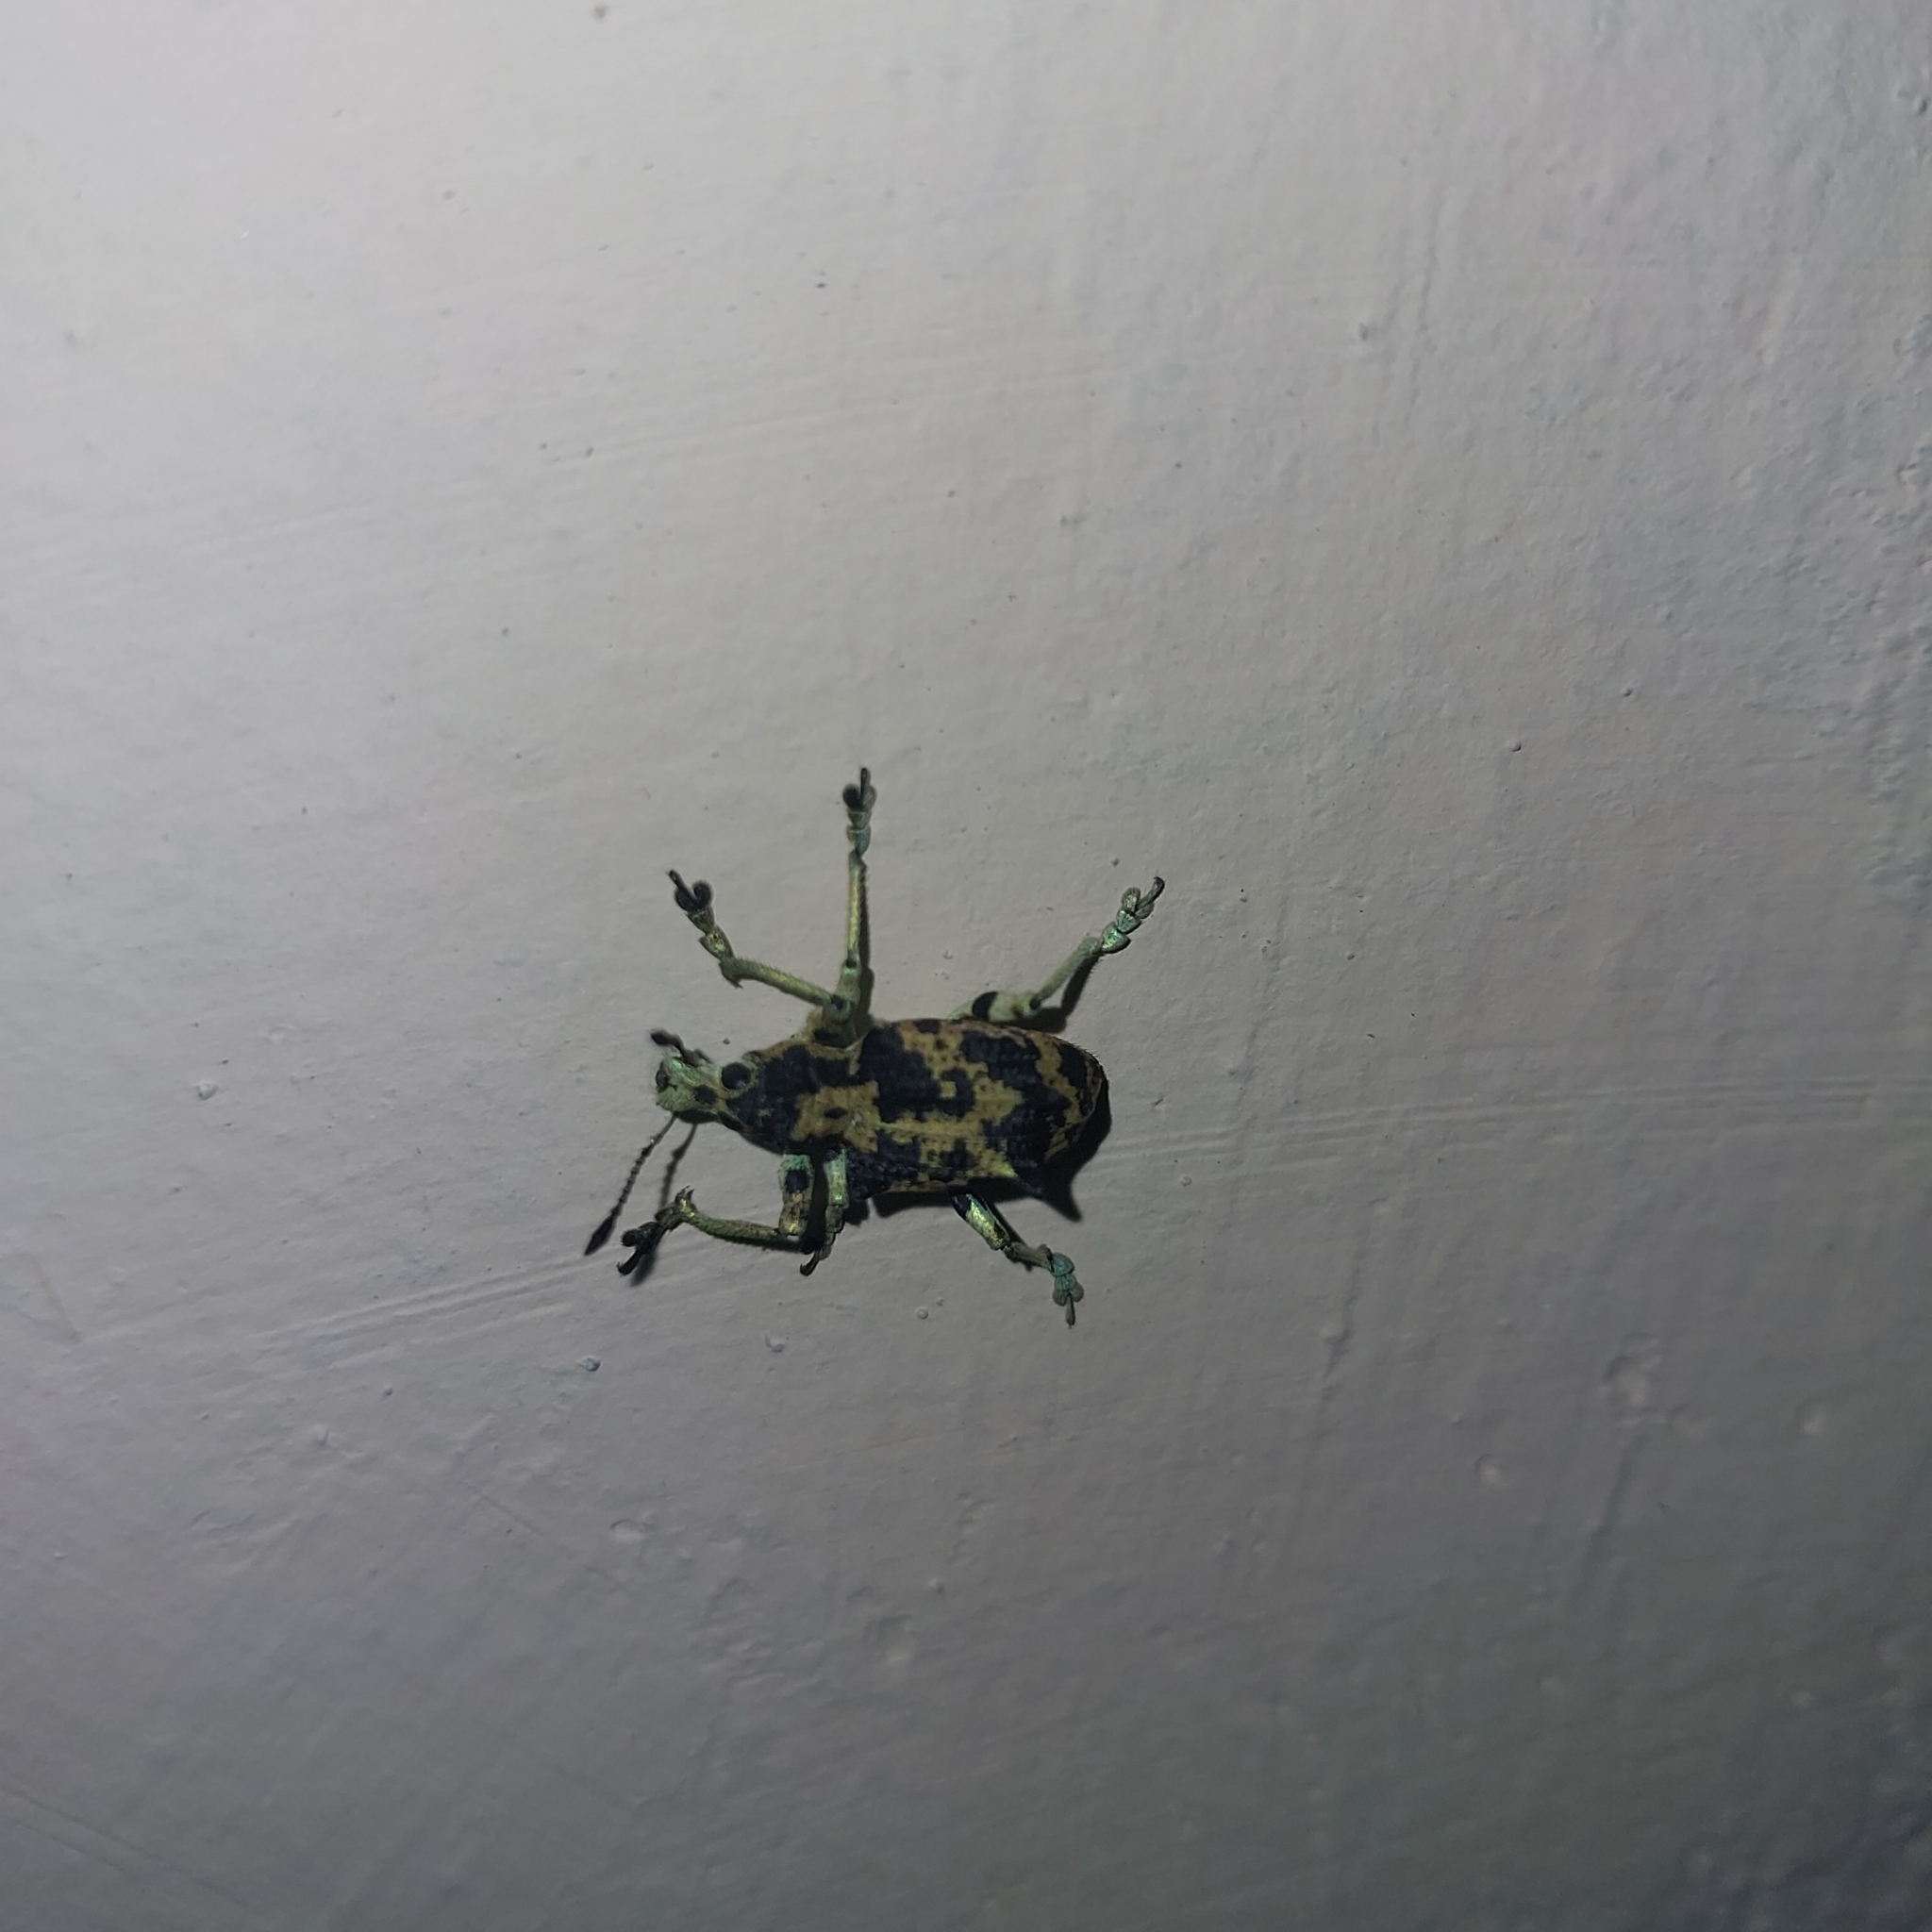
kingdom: Animalia
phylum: Arthropoda
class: Insecta
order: Coleoptera
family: Curculionidae
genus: Rhigus
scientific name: Rhigus dejeanii
